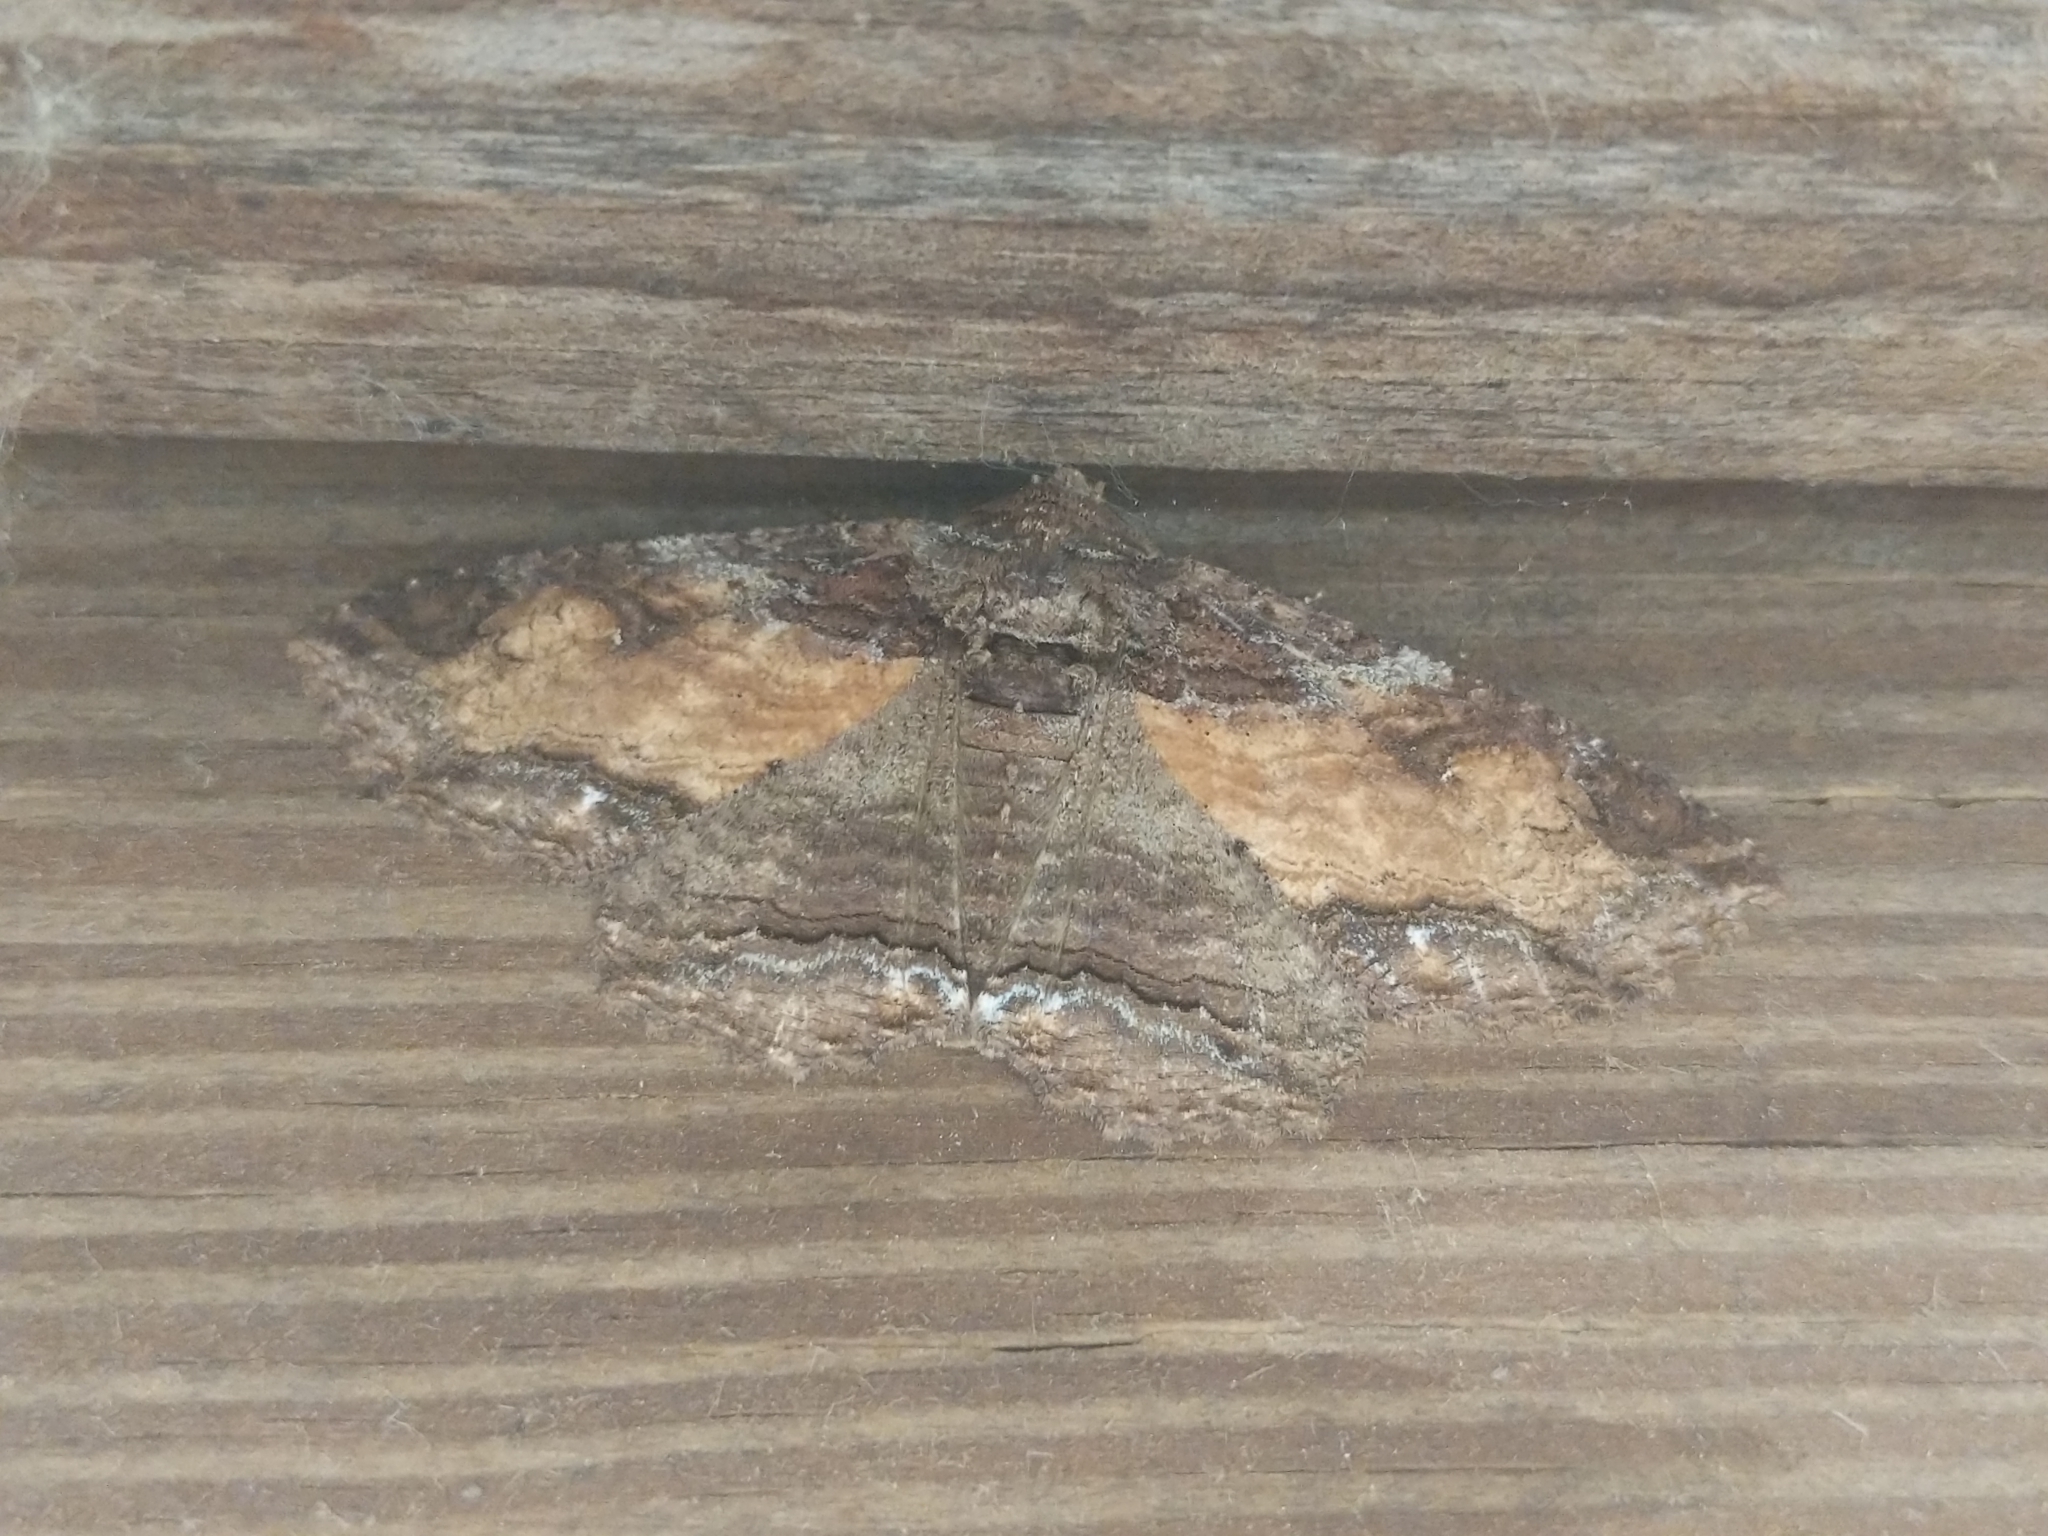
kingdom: Animalia
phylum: Arthropoda
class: Insecta
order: Lepidoptera
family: Erebidae
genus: Zale
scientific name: Zale lunata
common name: Lunate zale moth
